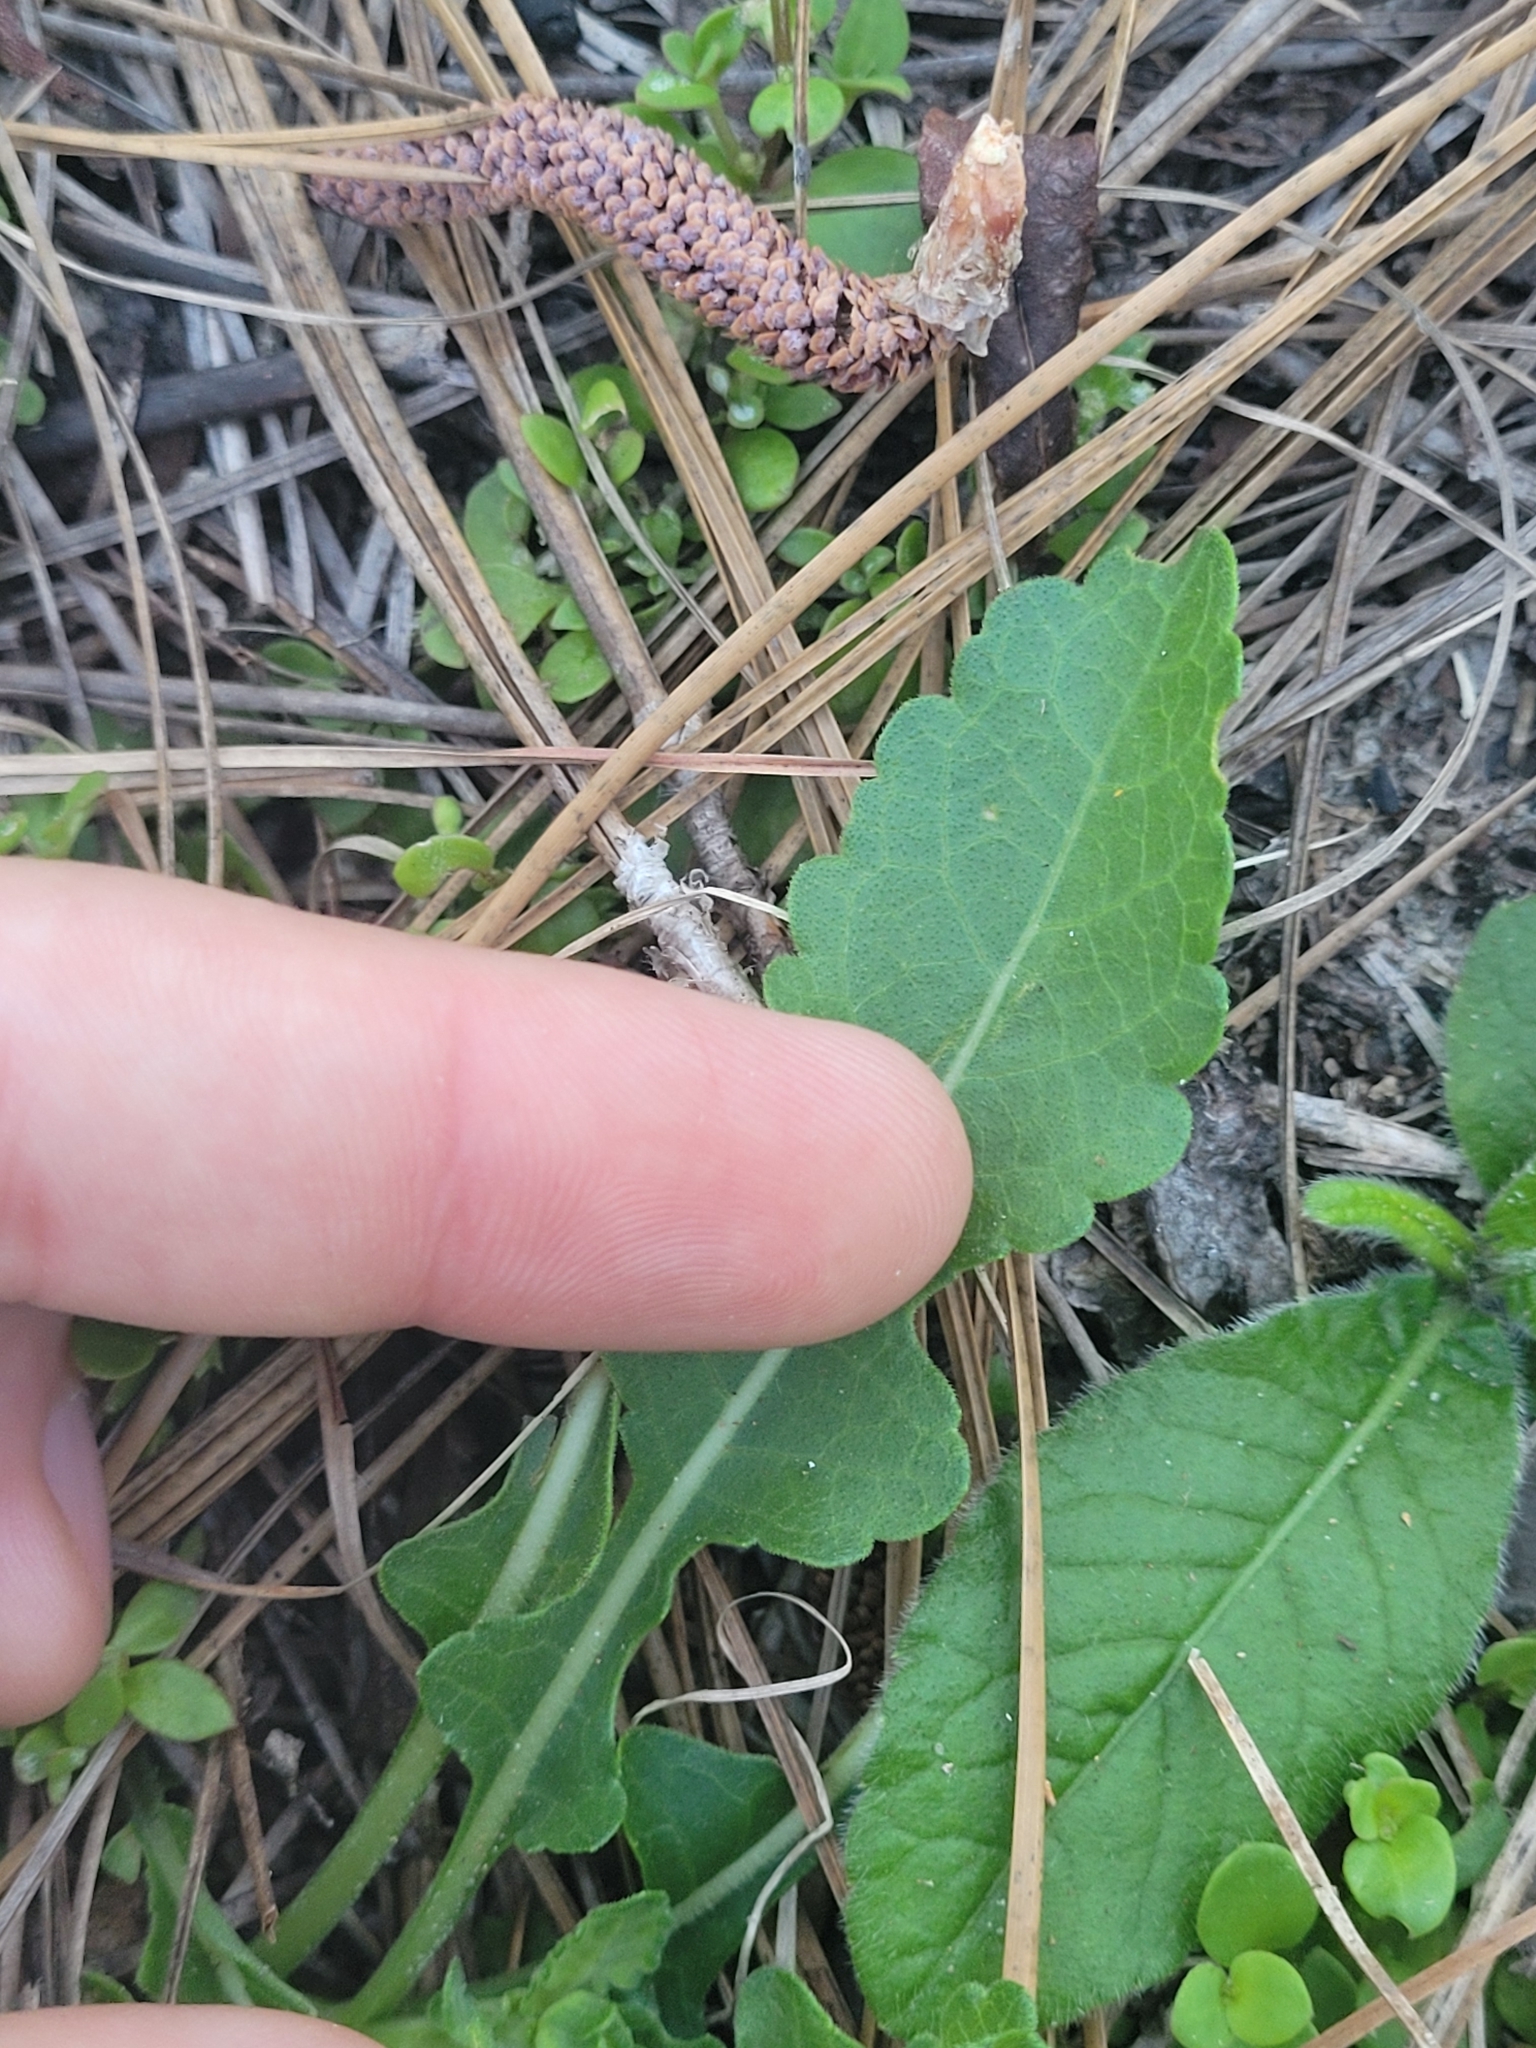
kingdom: Plantae
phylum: Tracheophyta
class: Magnoliopsida
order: Asterales
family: Asteraceae
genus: Berlandiera
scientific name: Berlandiera subacaulis
